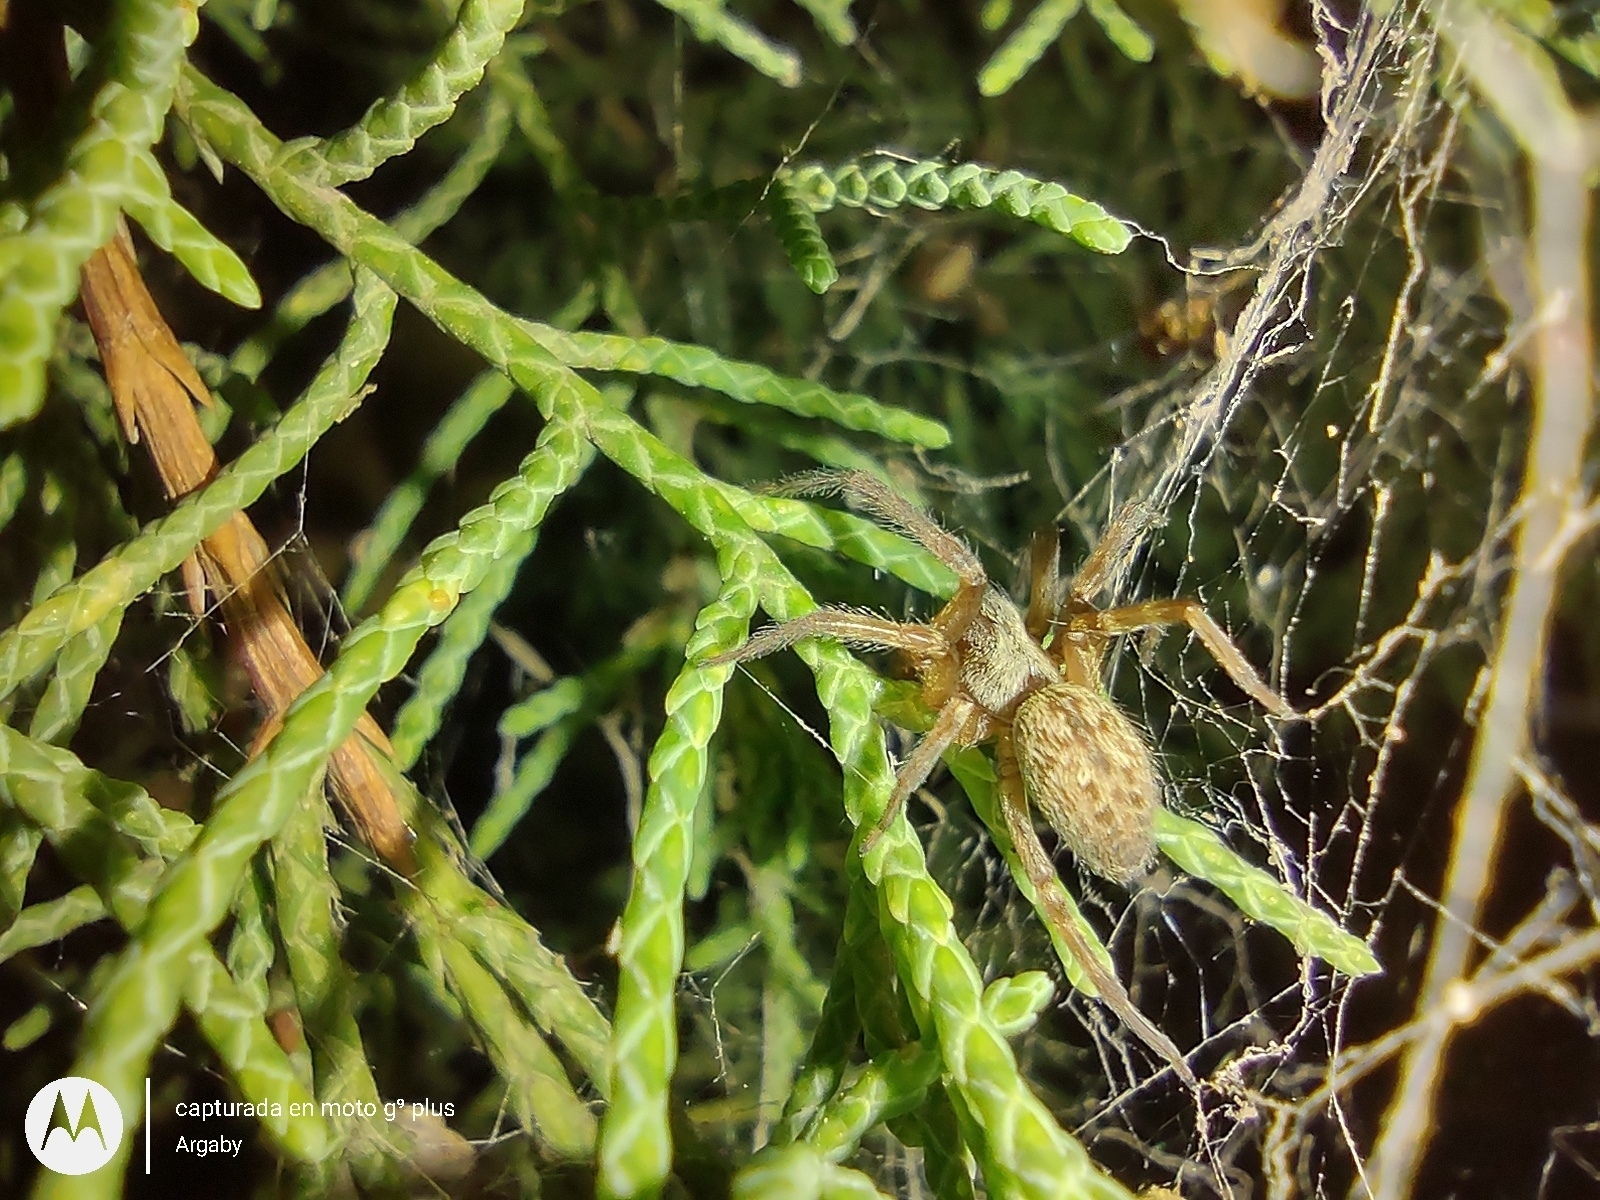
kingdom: Animalia
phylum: Arthropoda
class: Arachnida
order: Araneae
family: Desidae
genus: Badumna
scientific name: Badumna longinqua
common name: Gray house spider
